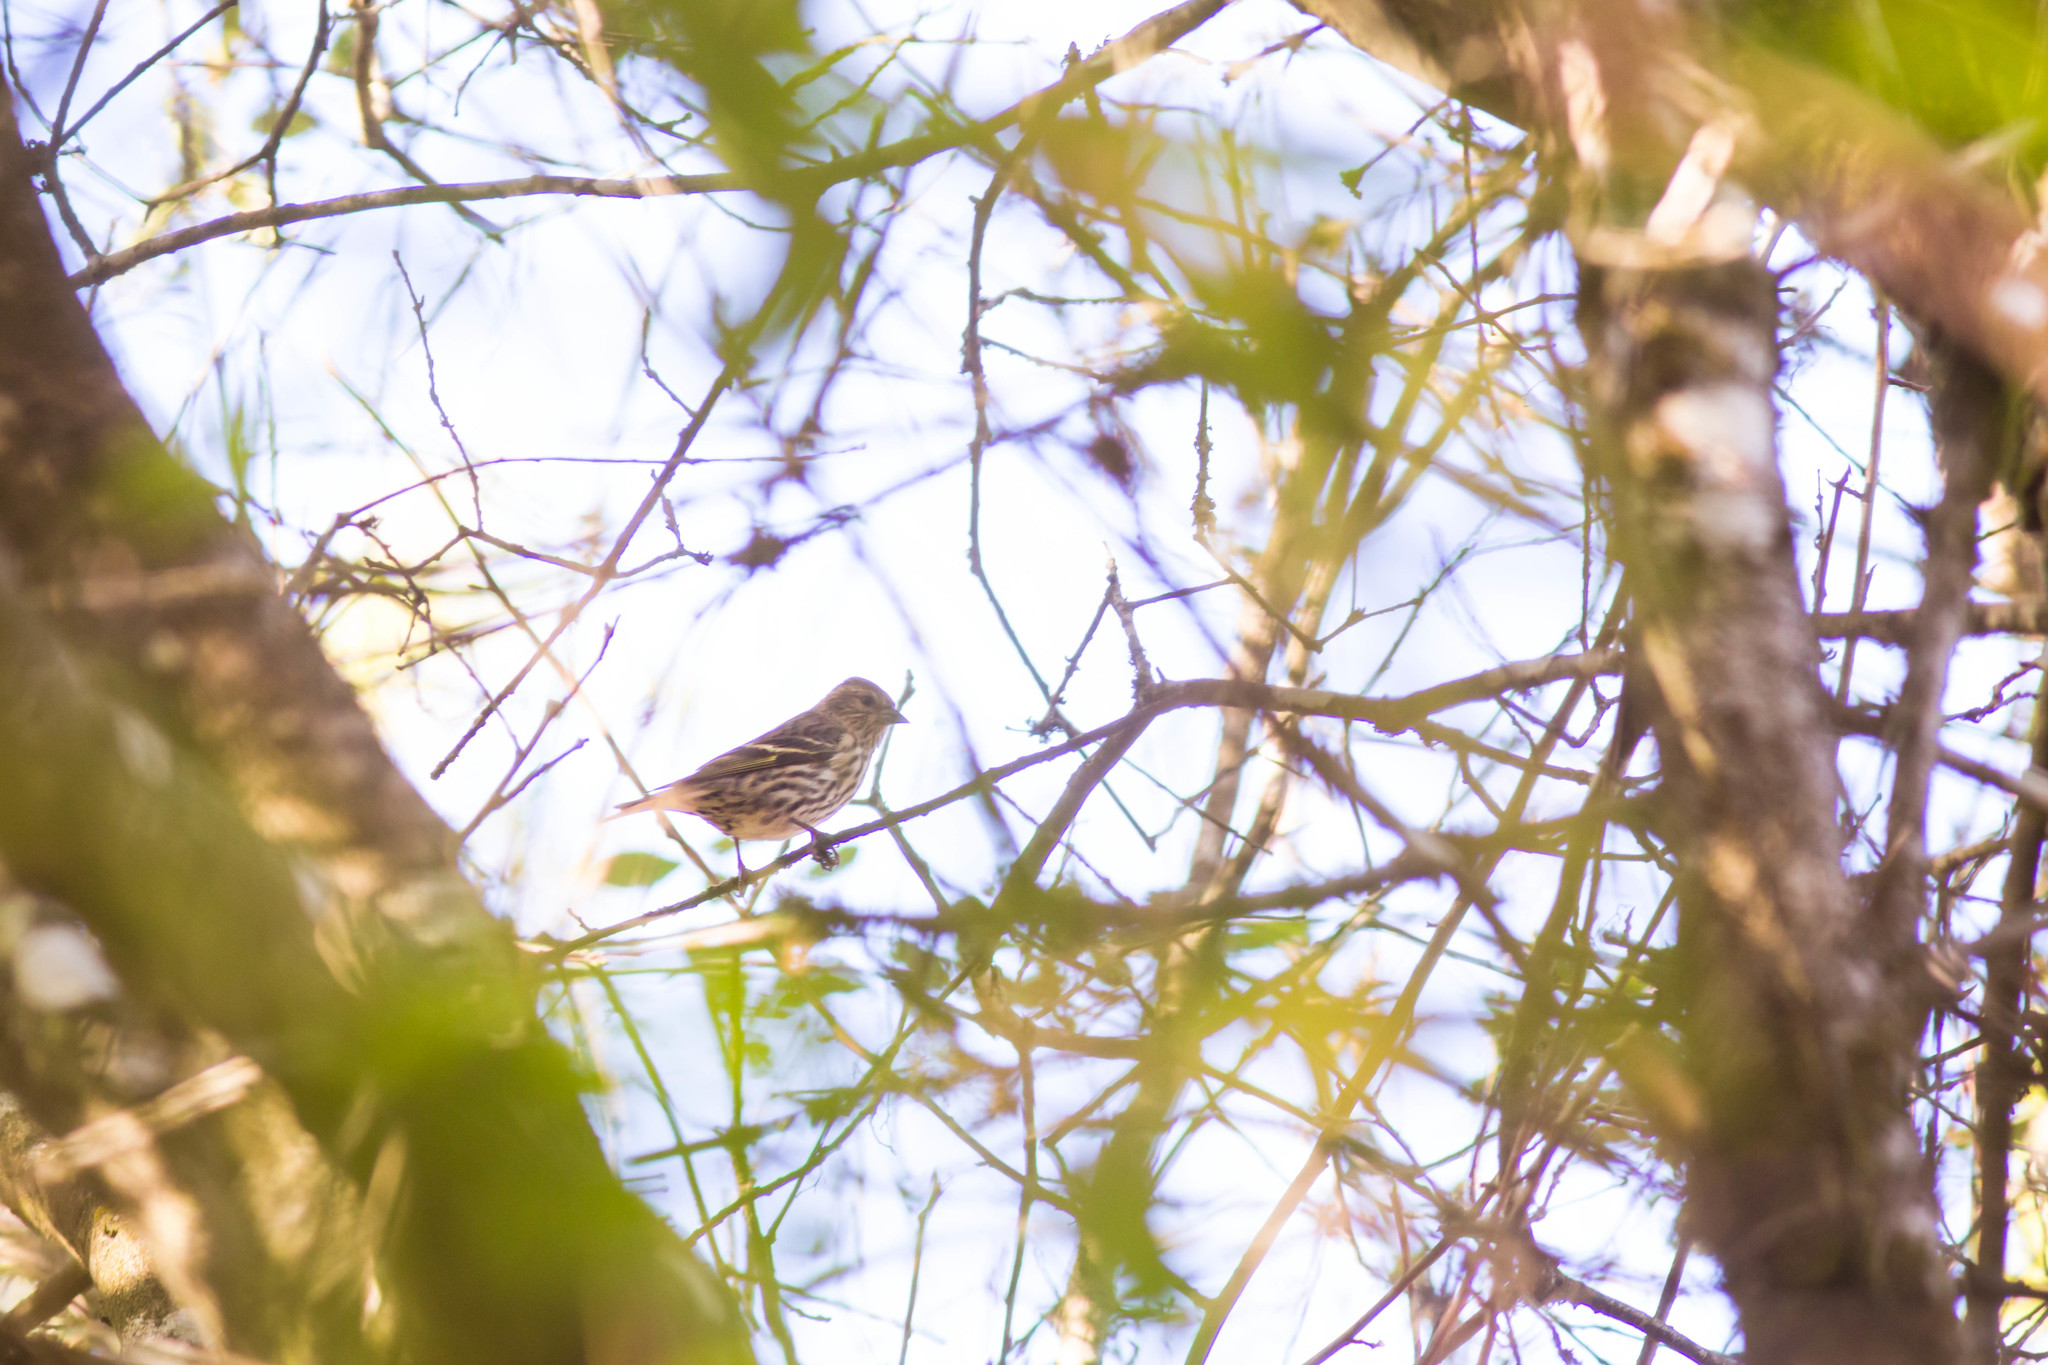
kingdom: Animalia
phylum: Chordata
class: Aves
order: Passeriformes
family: Fringillidae
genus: Spinus
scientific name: Spinus pinus
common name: Pine siskin
